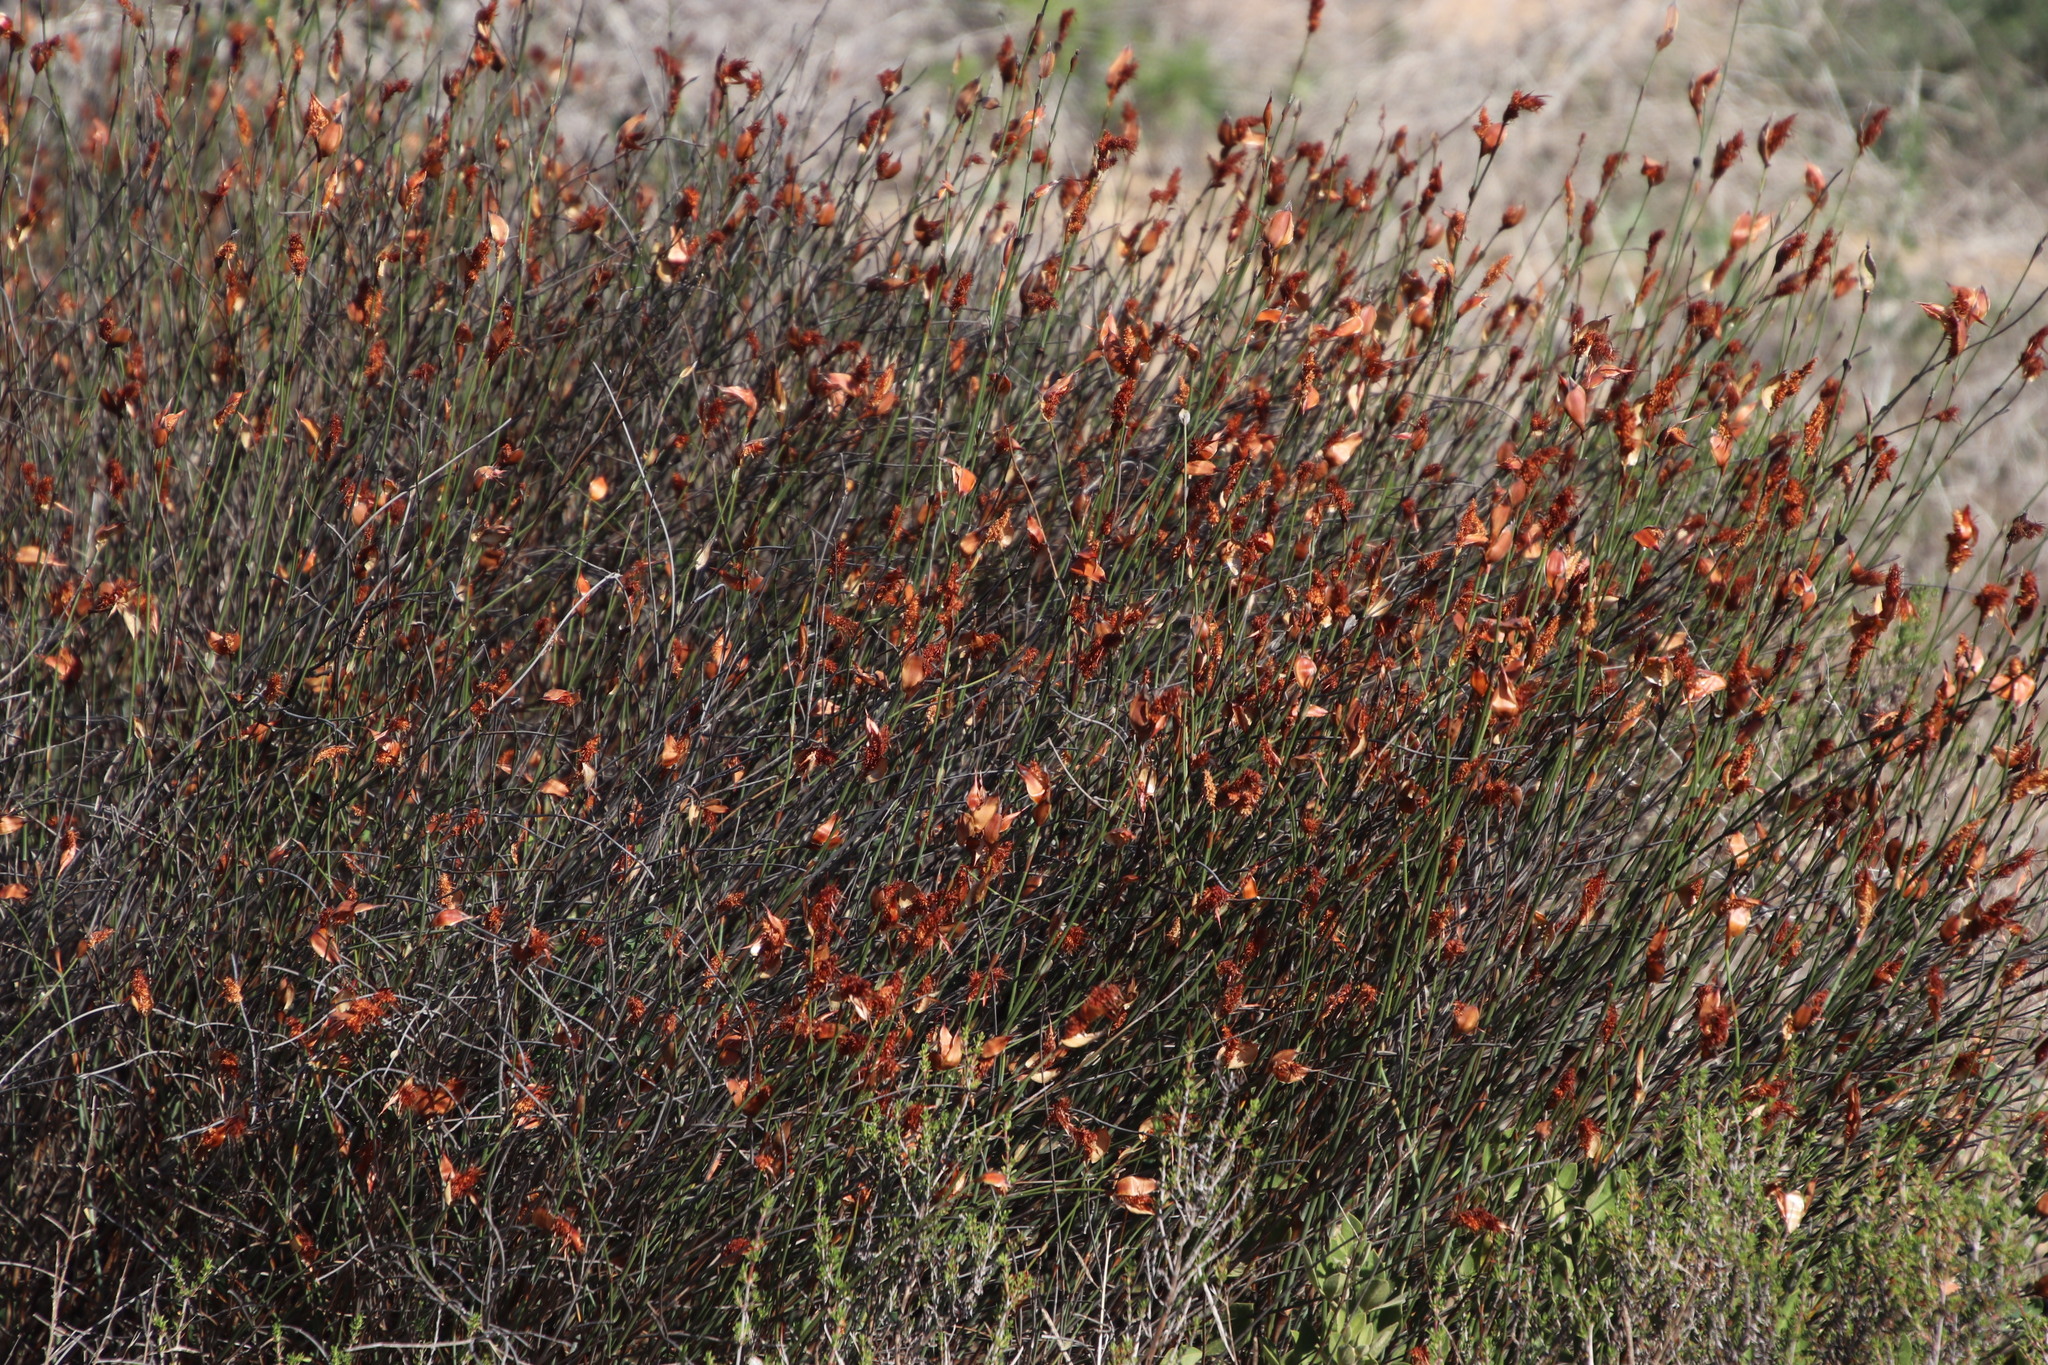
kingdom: Plantae
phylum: Tracheophyta
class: Liliopsida
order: Poales
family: Restionaceae
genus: Willdenowia
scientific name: Willdenowia incurvata
